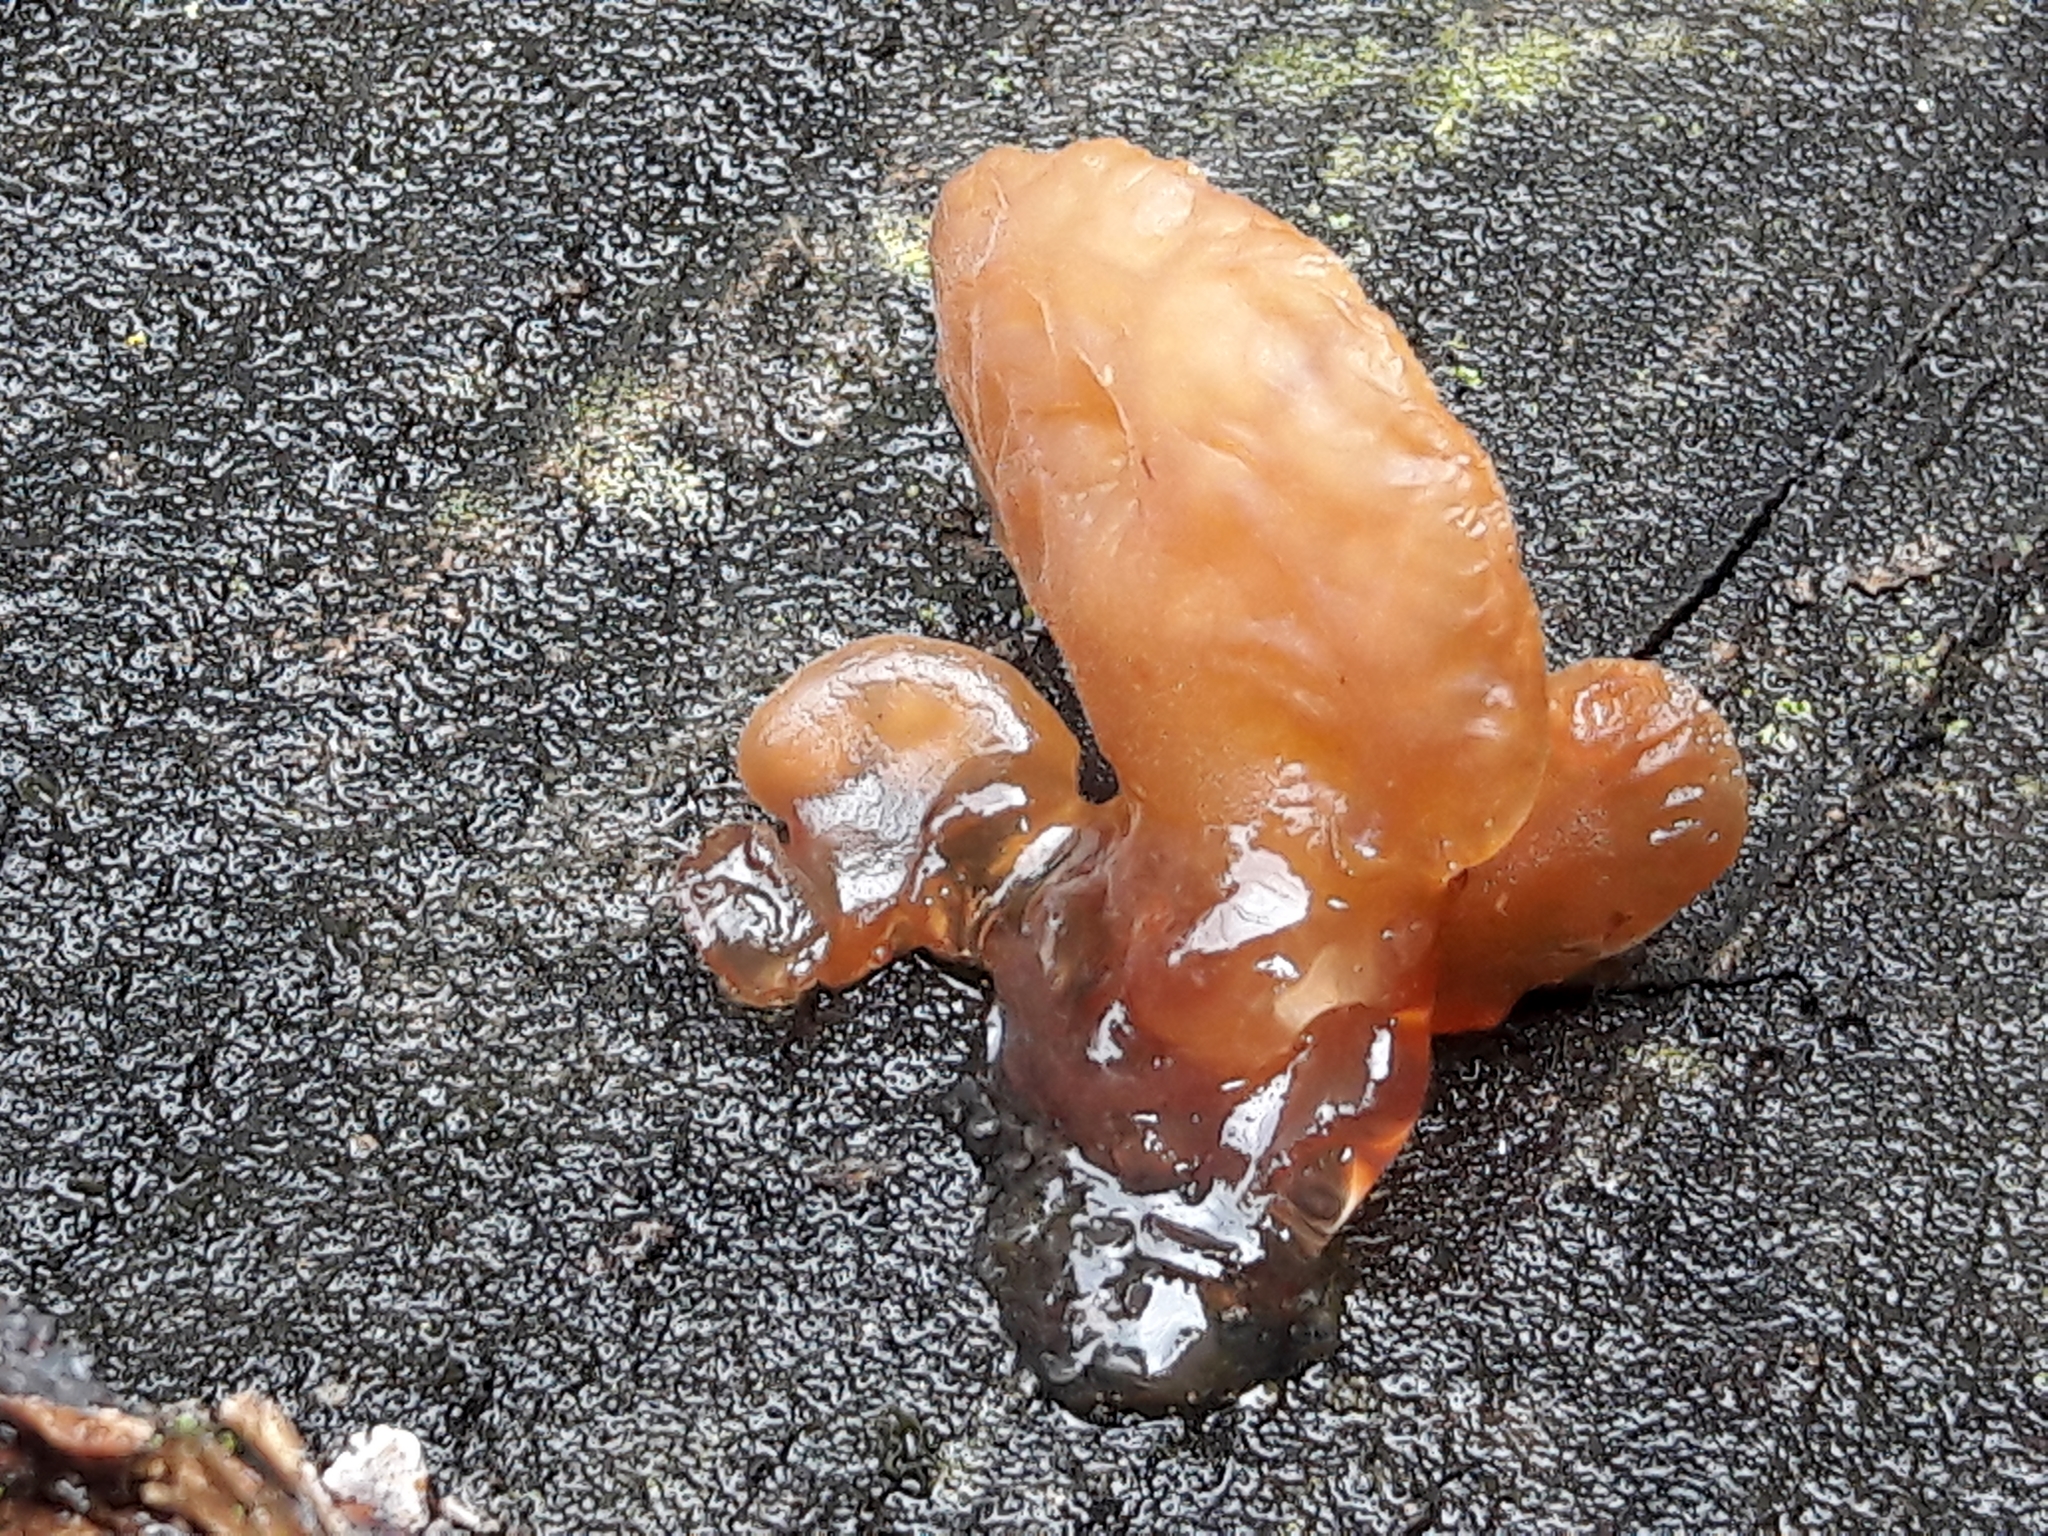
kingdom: Fungi
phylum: Basidiomycota
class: Agaricomycetes
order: Auriculariales
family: Auriculariaceae
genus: Auricularia
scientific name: Auricularia delicata
